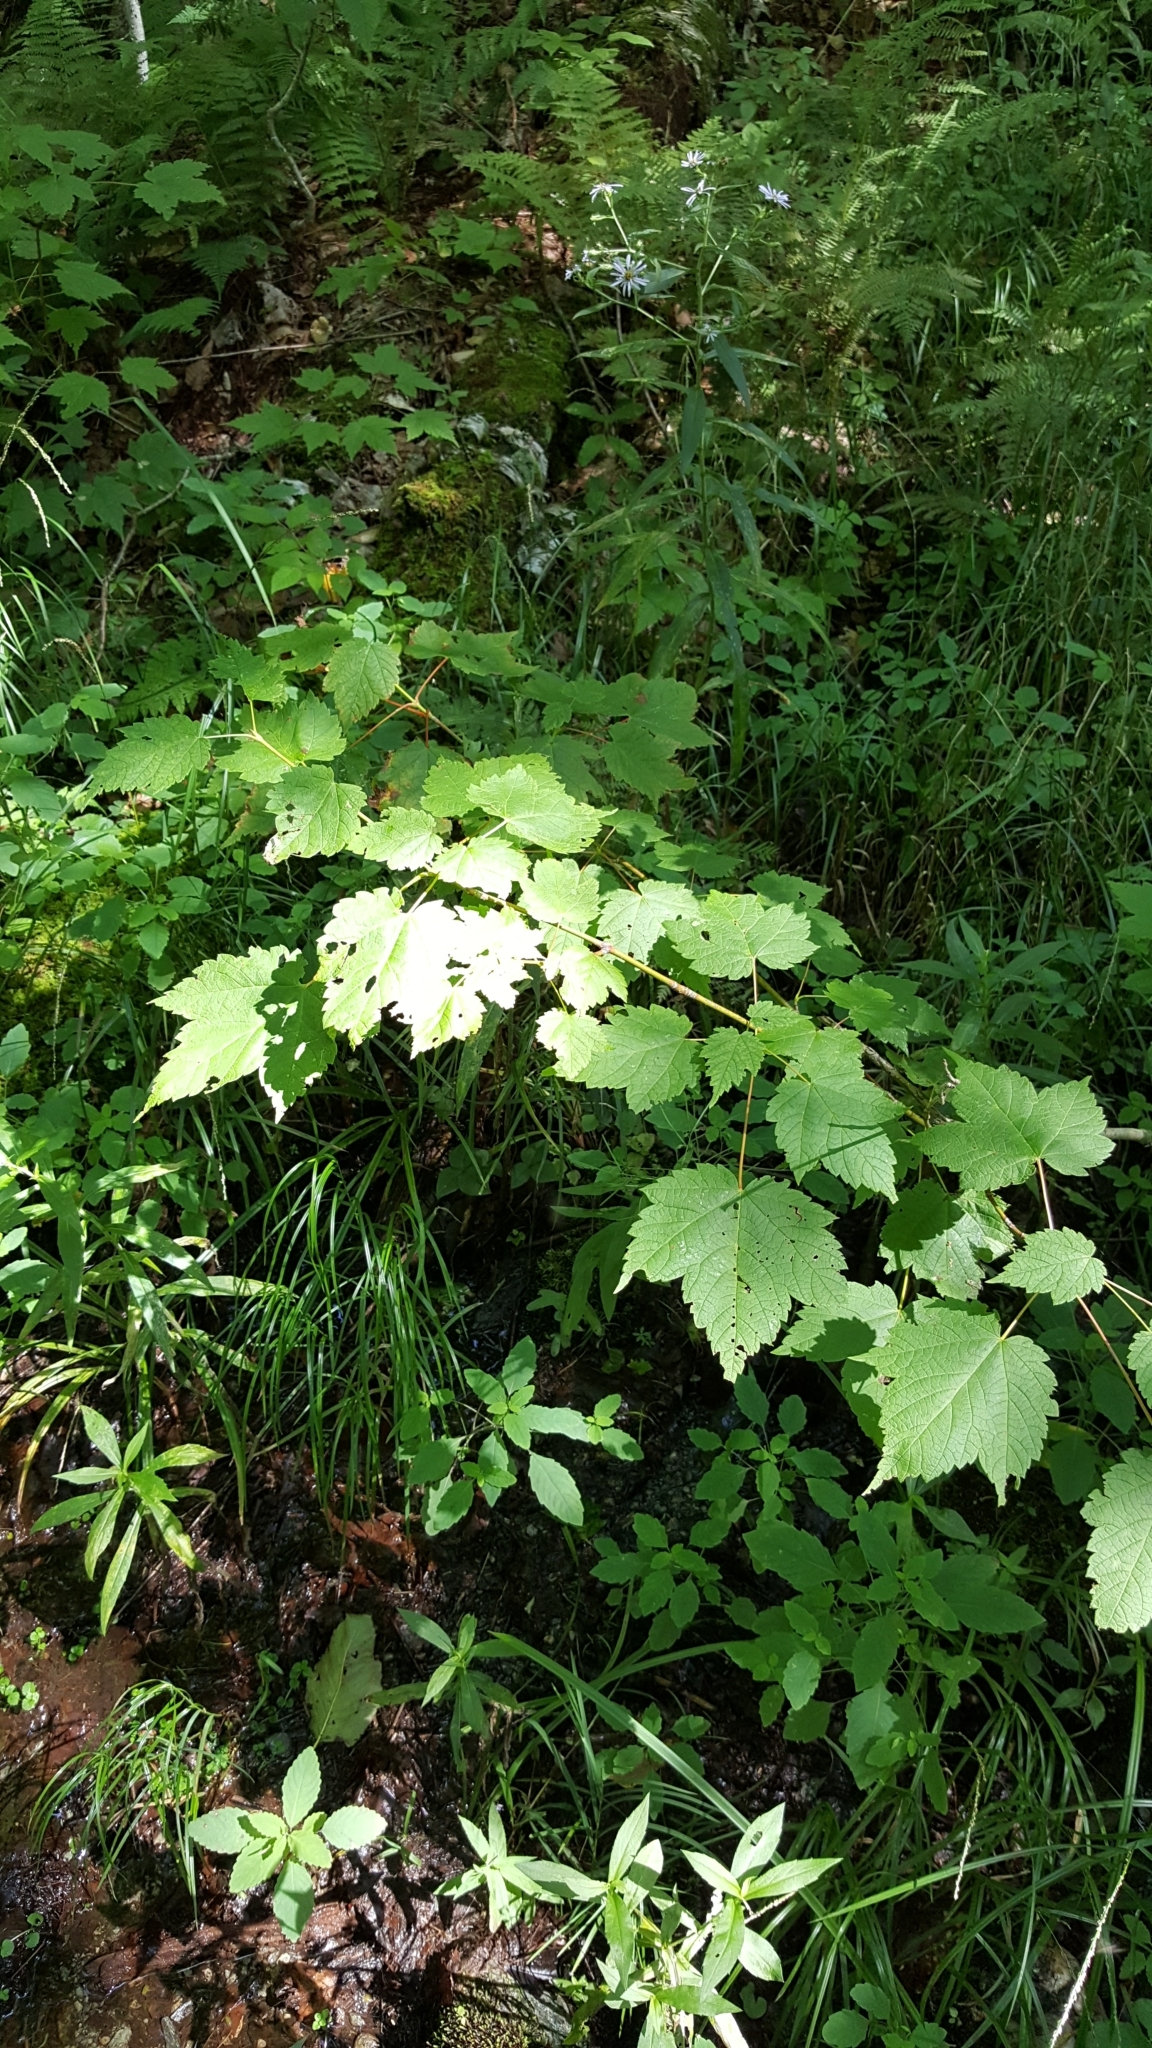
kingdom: Plantae
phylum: Tracheophyta
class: Magnoliopsida
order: Sapindales
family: Sapindaceae
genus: Acer
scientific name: Acer spicatum
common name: Mountain maple
